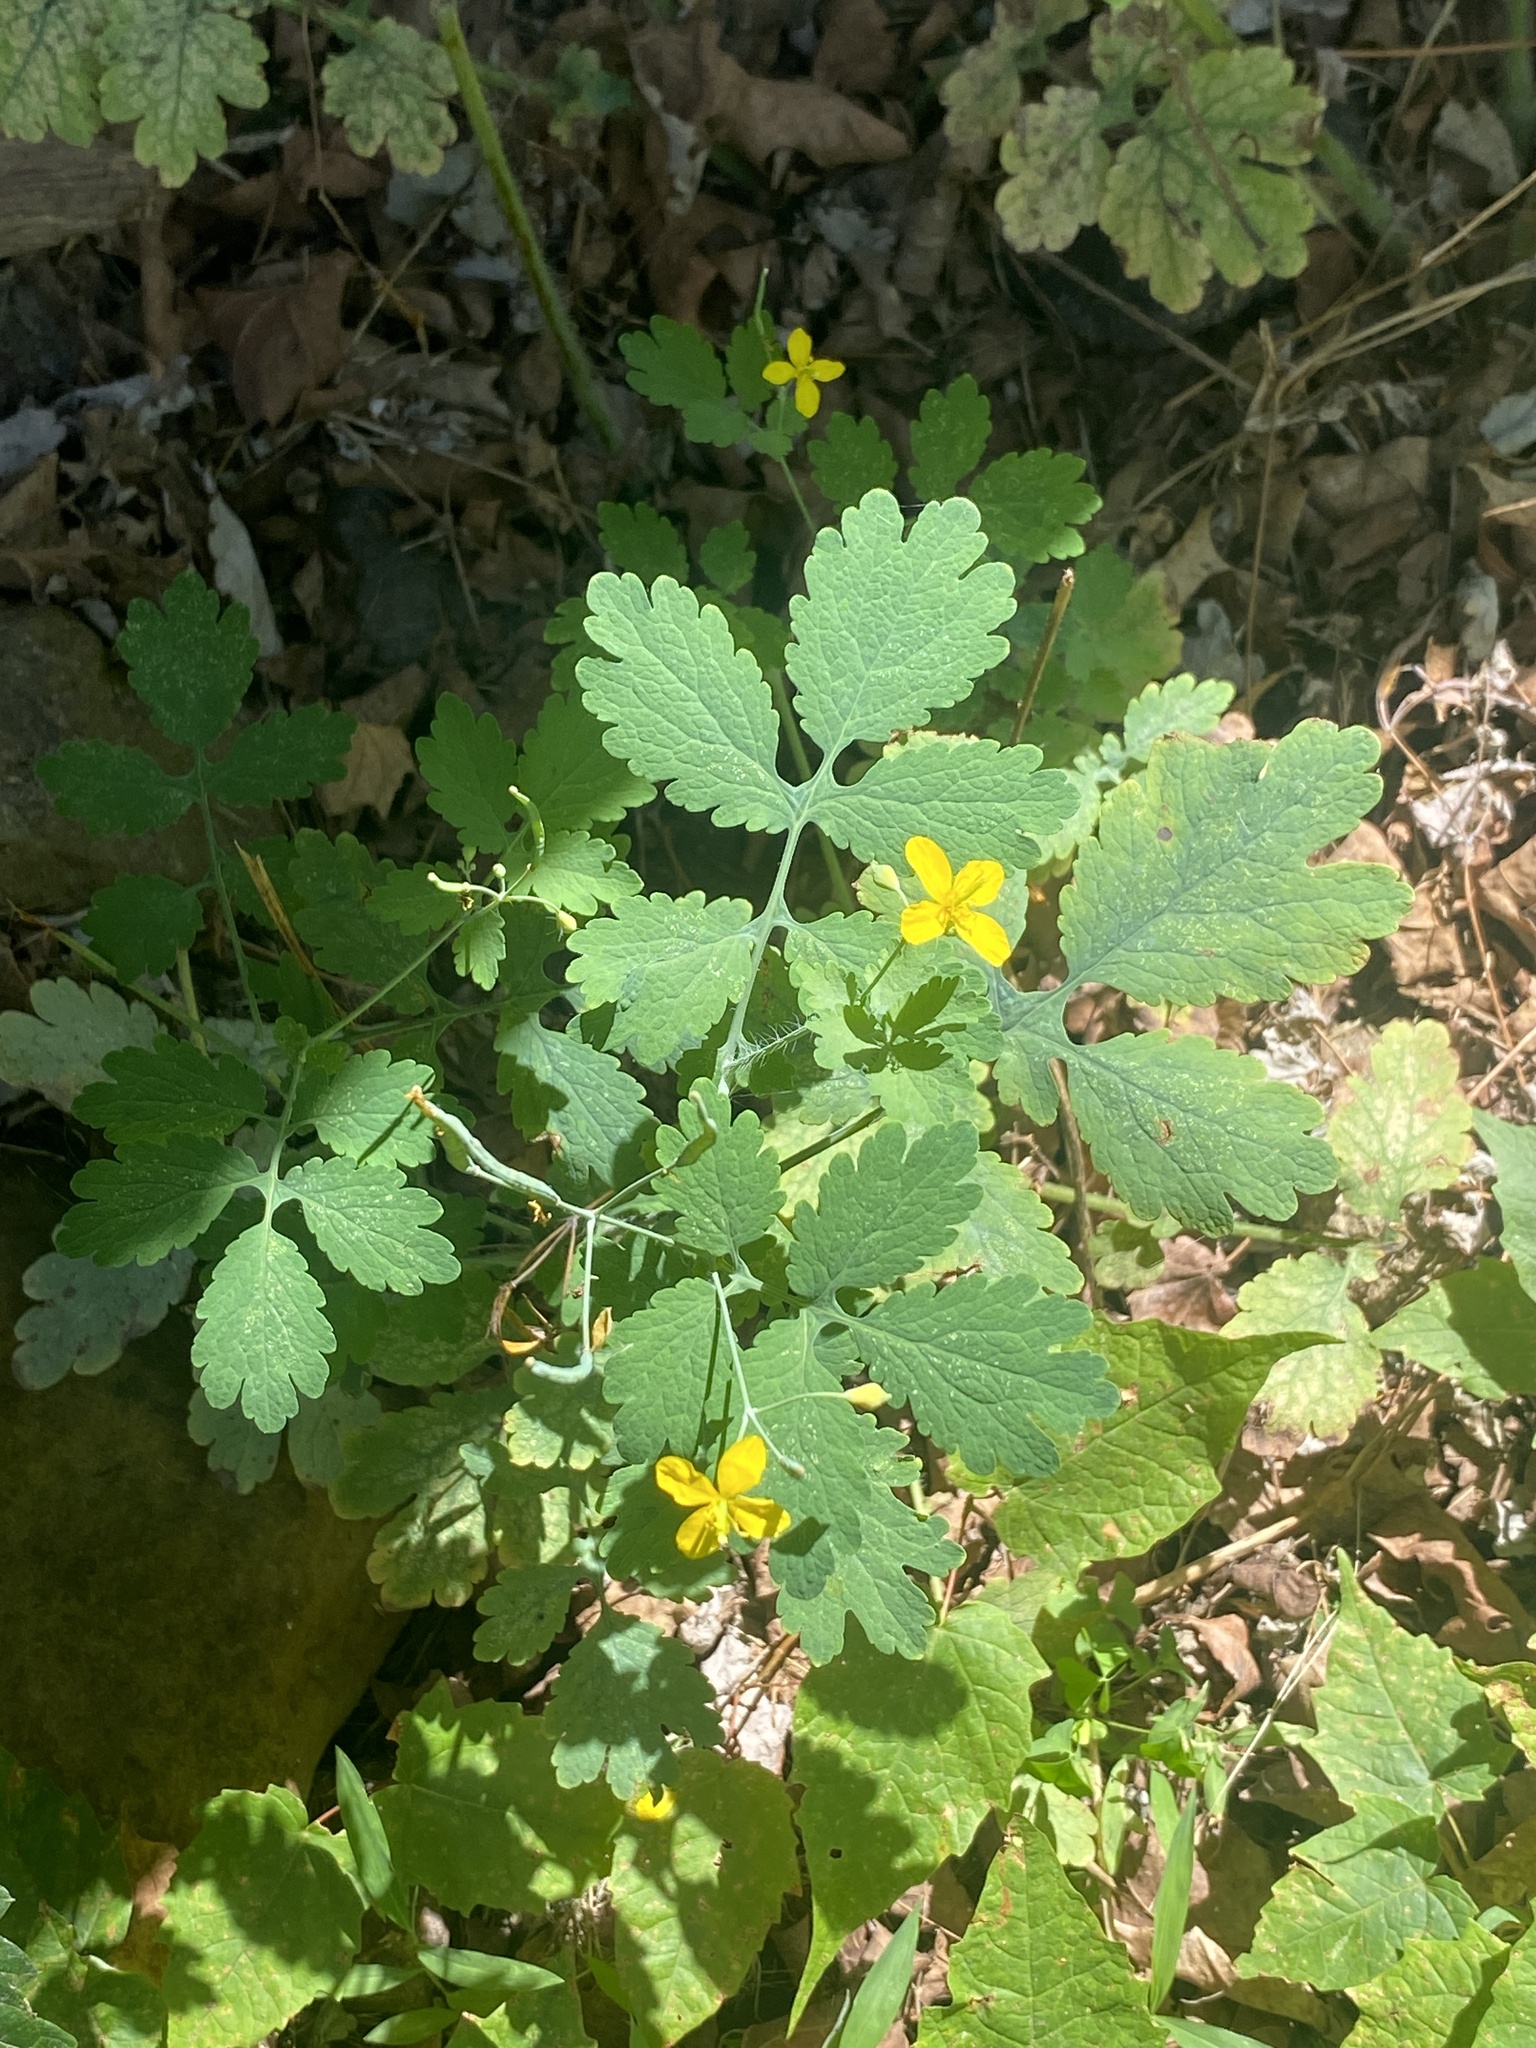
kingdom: Plantae
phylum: Tracheophyta
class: Magnoliopsida
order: Ranunculales
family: Papaveraceae
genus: Chelidonium
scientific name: Chelidonium majus
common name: Greater celandine
